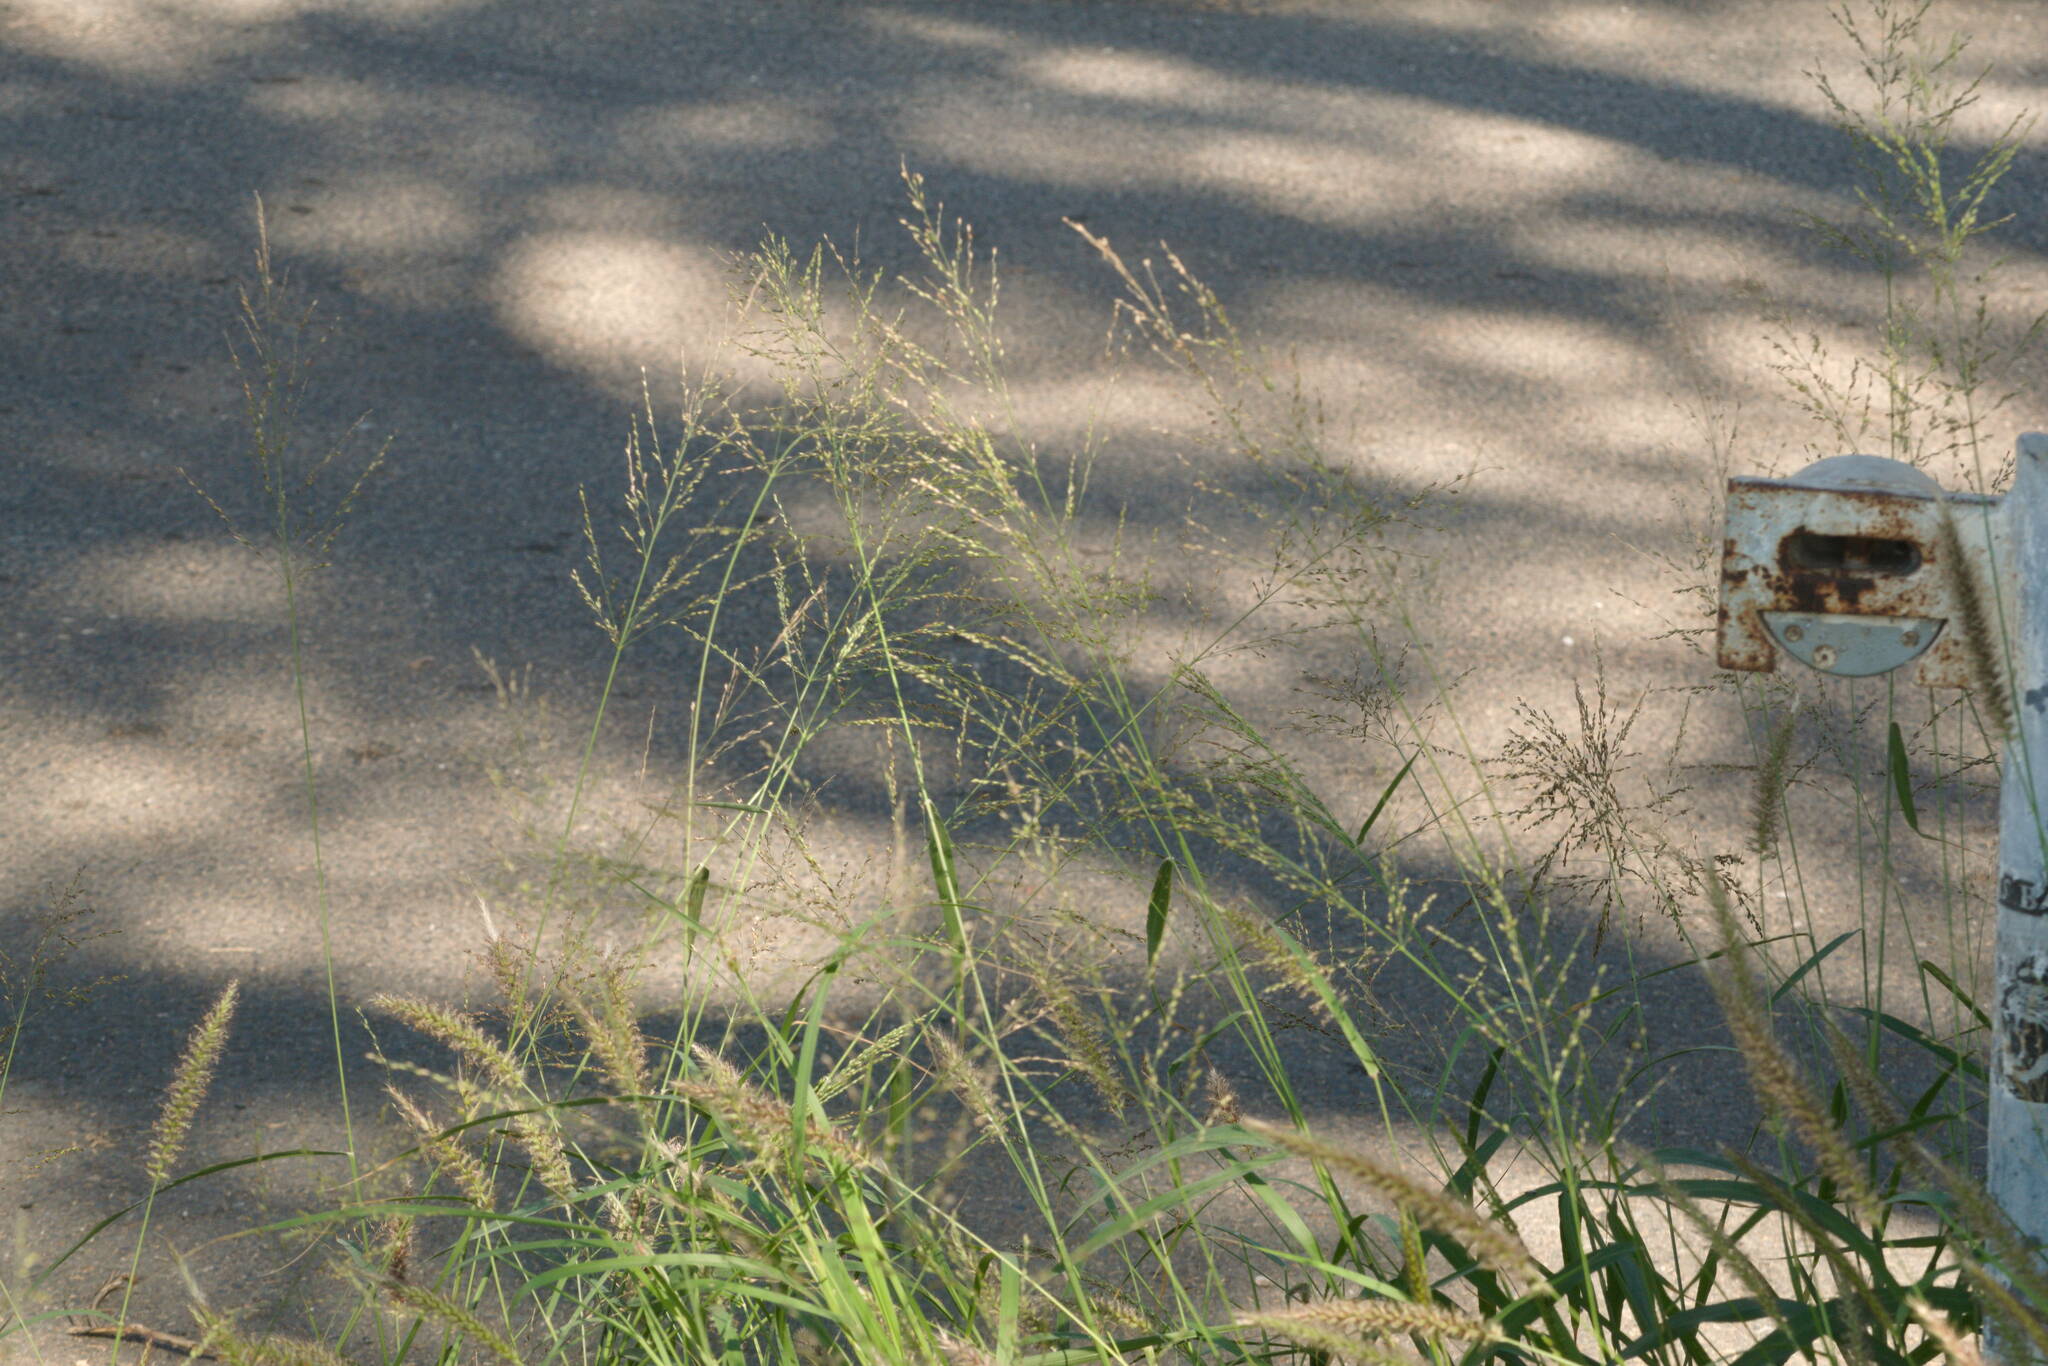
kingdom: Plantae
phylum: Tracheophyta
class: Liliopsida
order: Poales
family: Poaceae
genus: Megathyrsus
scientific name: Megathyrsus maximus
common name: Guineagrass
